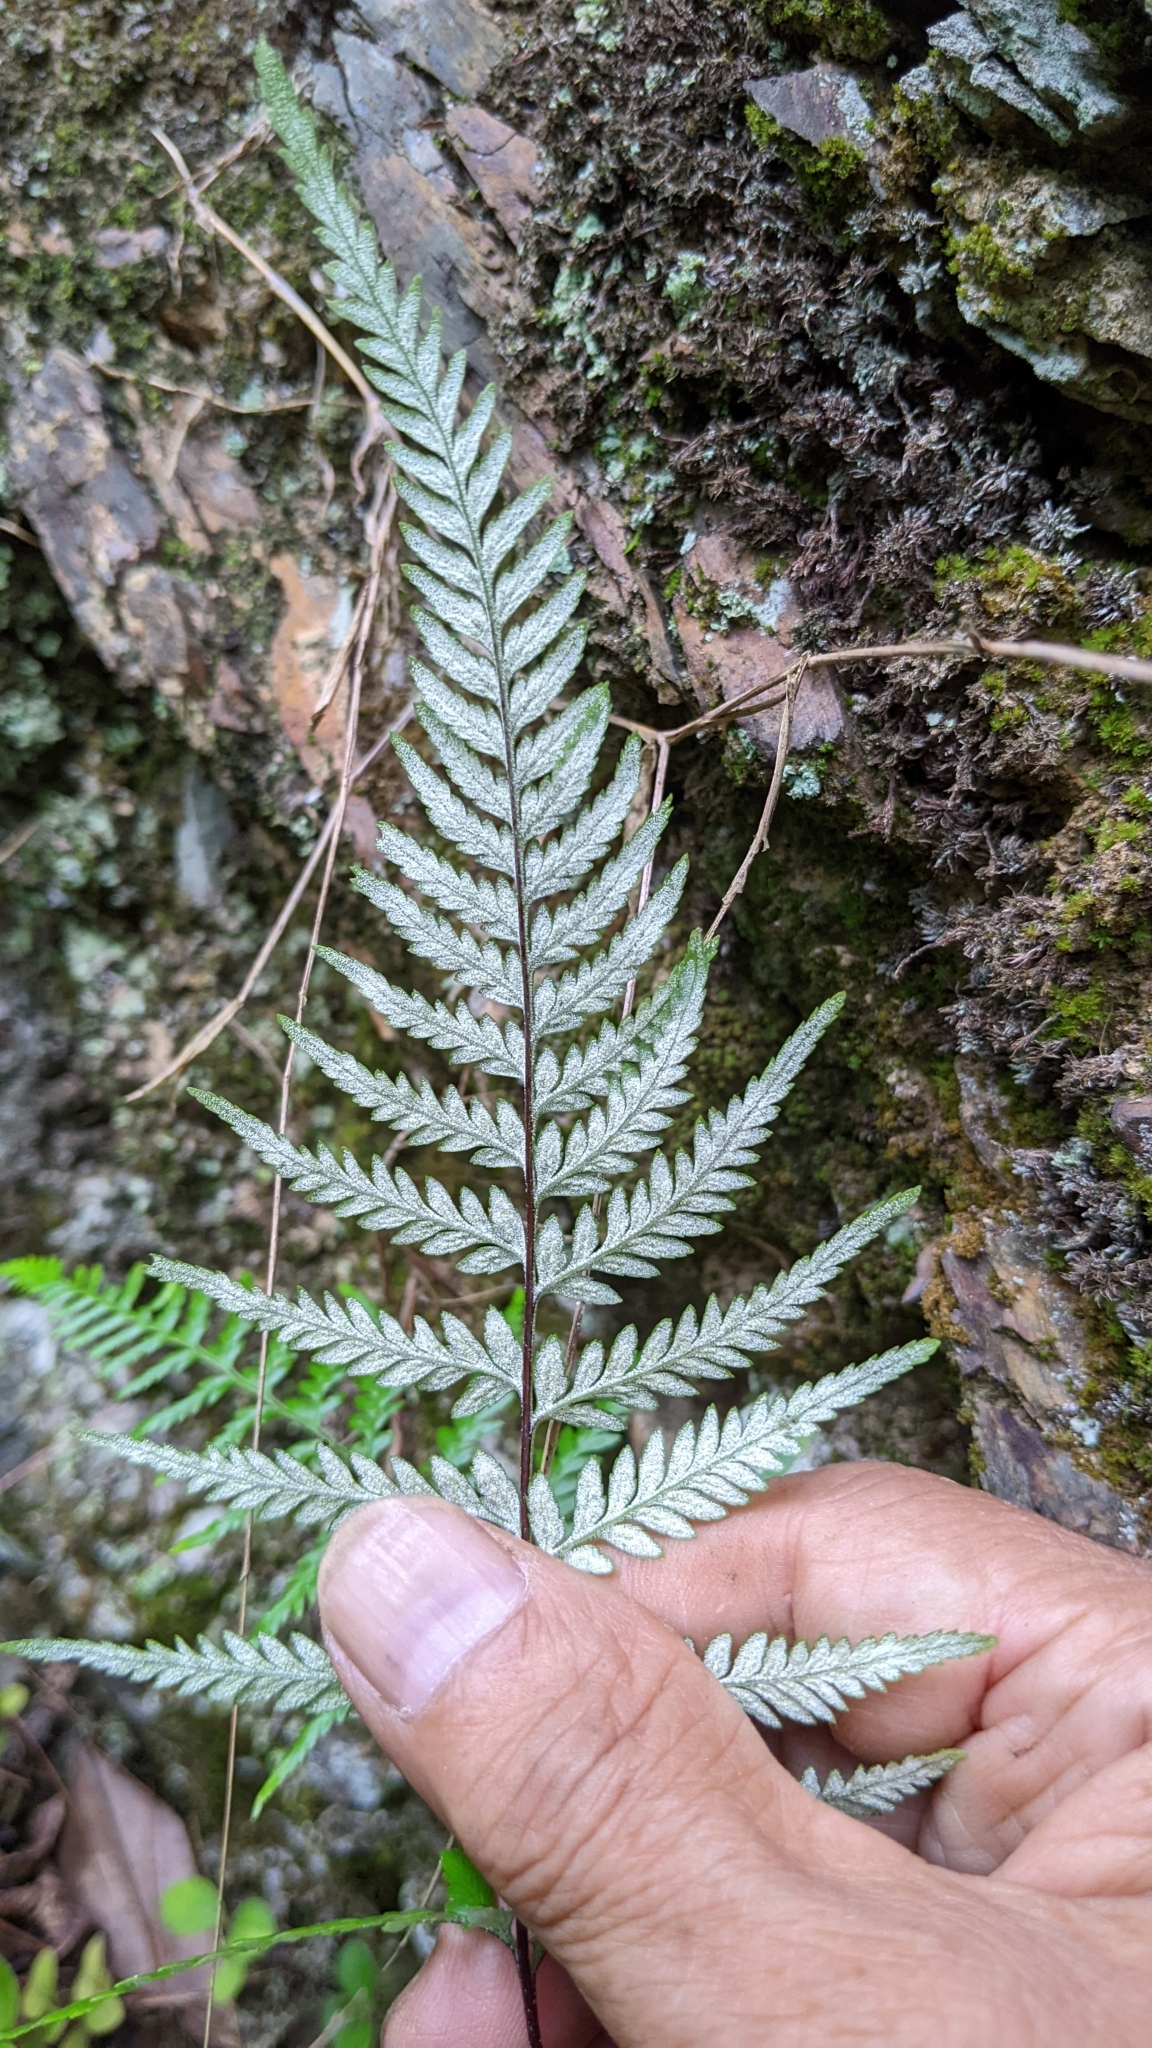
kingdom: Plantae
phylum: Tracheophyta
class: Polypodiopsida
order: Polypodiales
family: Pteridaceae
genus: Pityrogramma
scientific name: Pityrogramma calomelanos
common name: Dixie silverback fern
